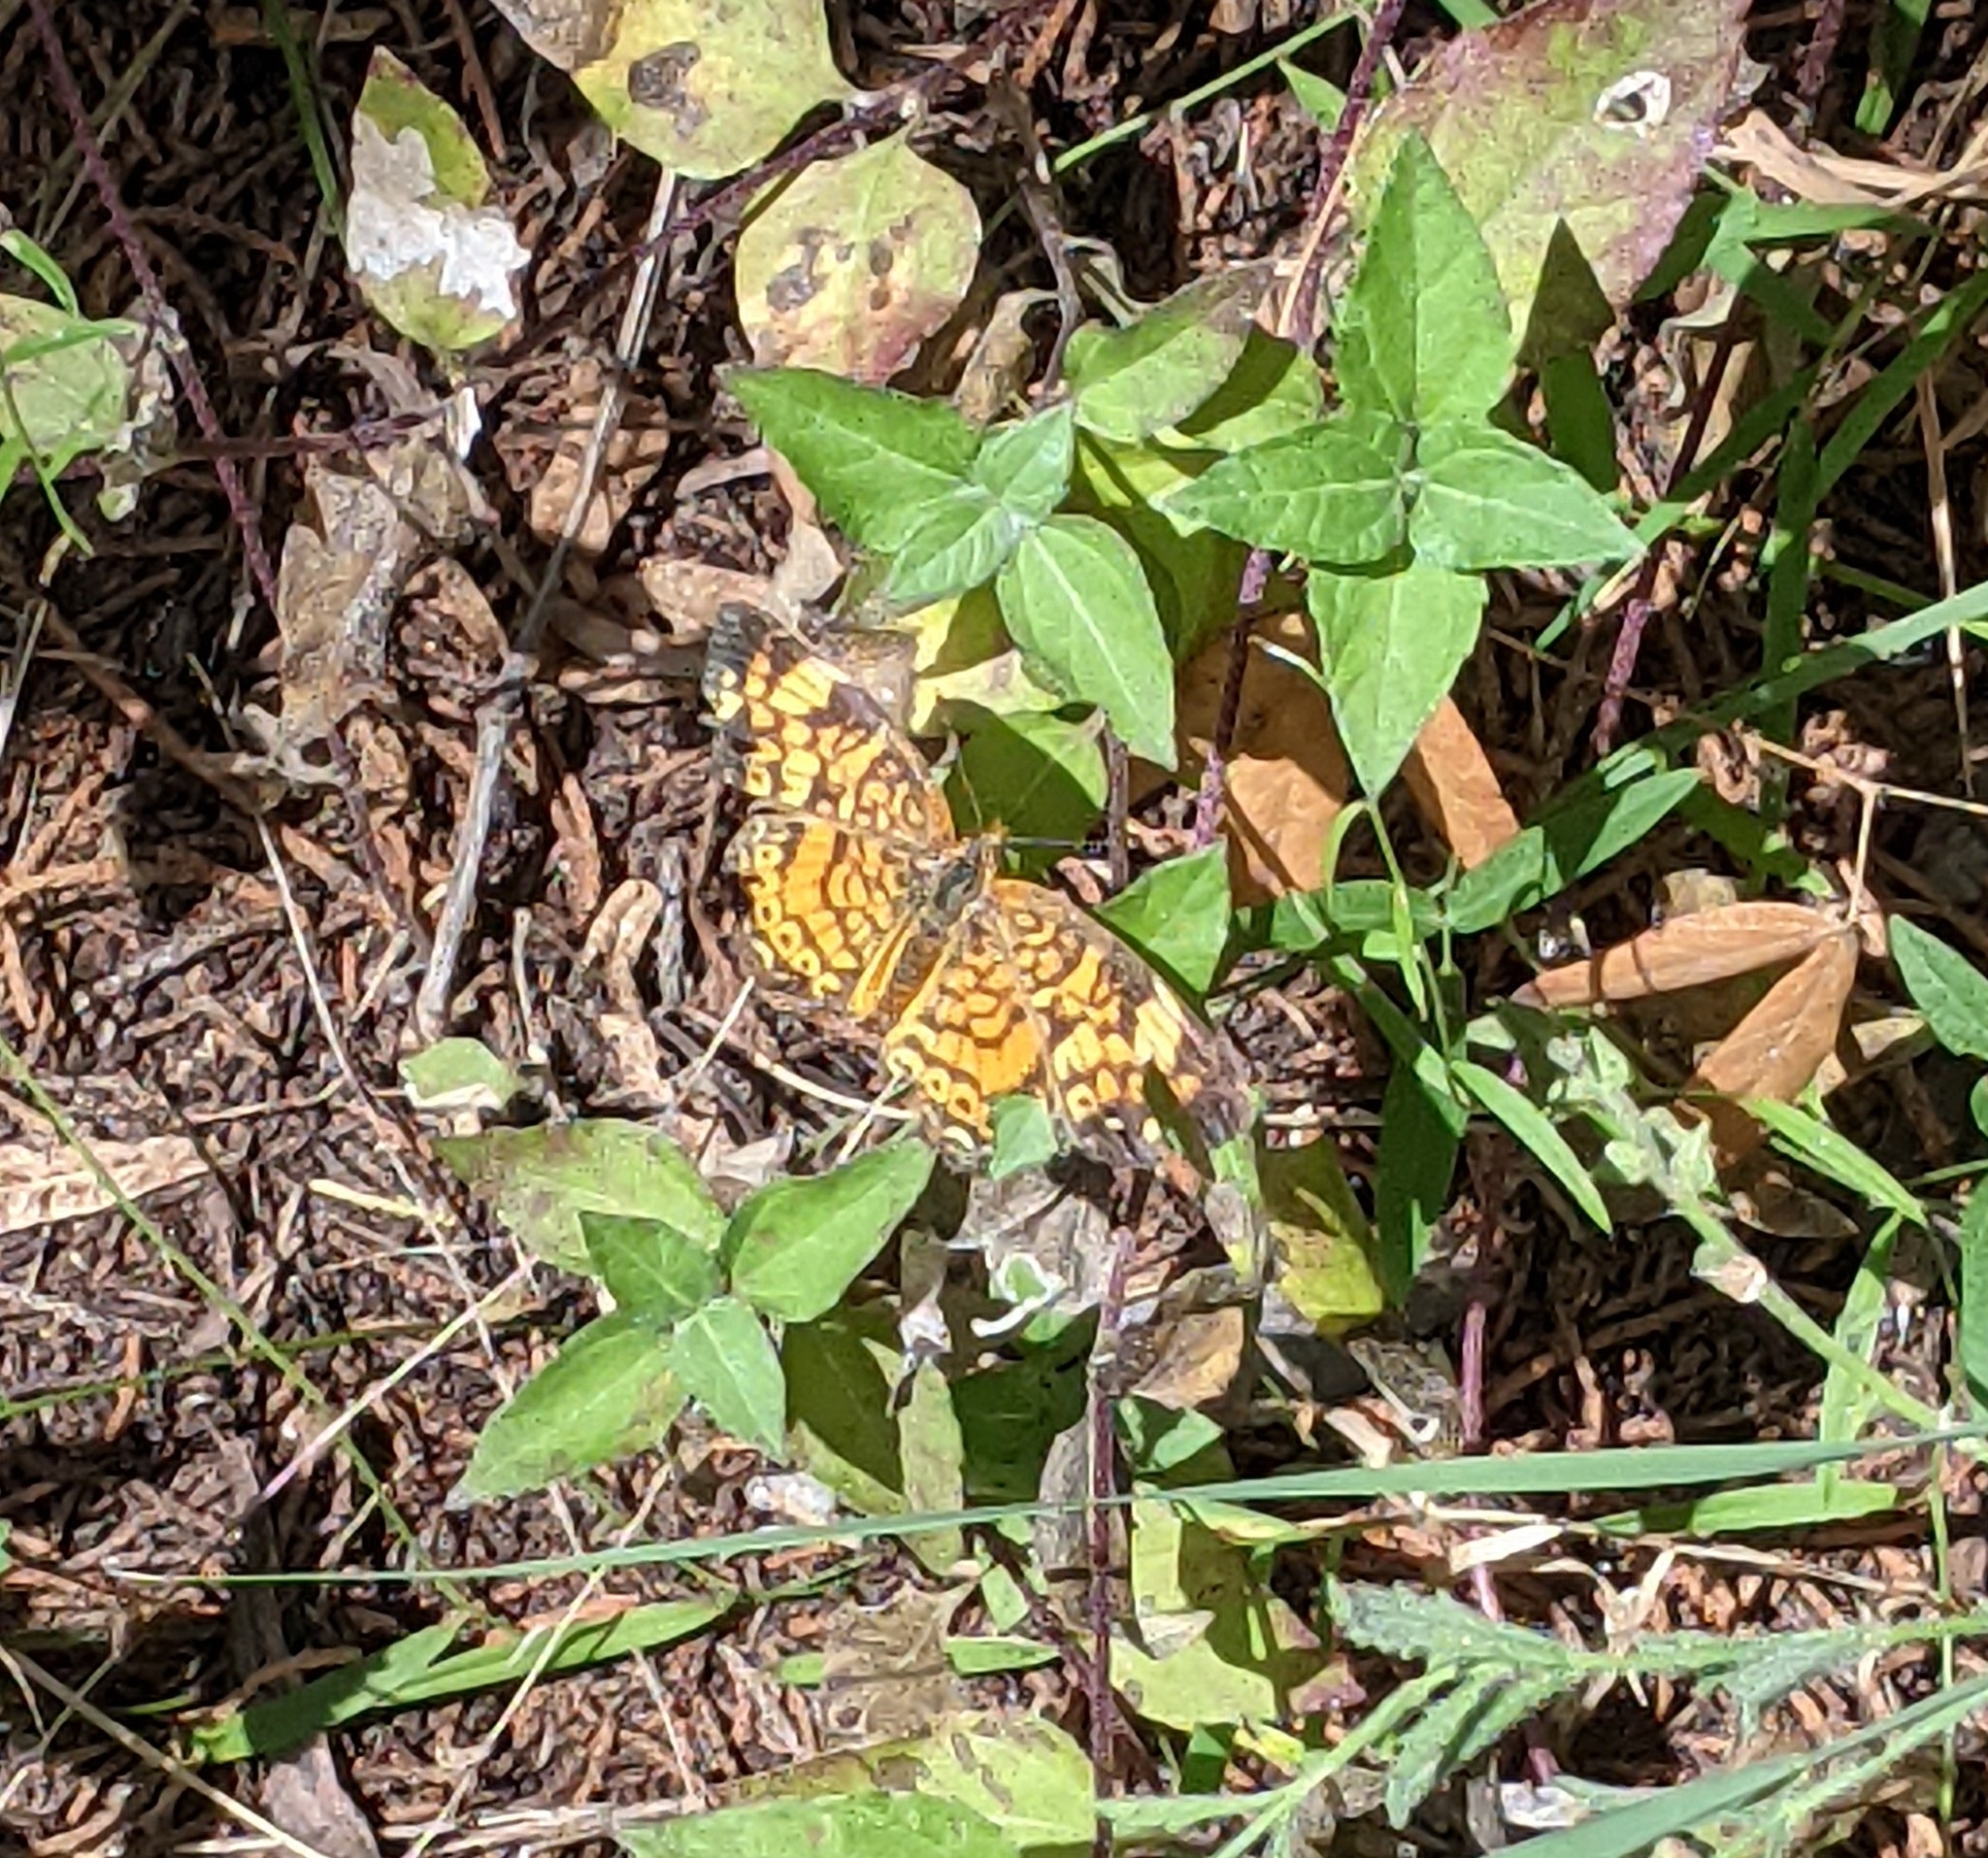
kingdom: Animalia
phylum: Arthropoda
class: Insecta
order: Lepidoptera
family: Nymphalidae
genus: Phyciodes
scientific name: Phyciodes tharos
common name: Pearl crescent
